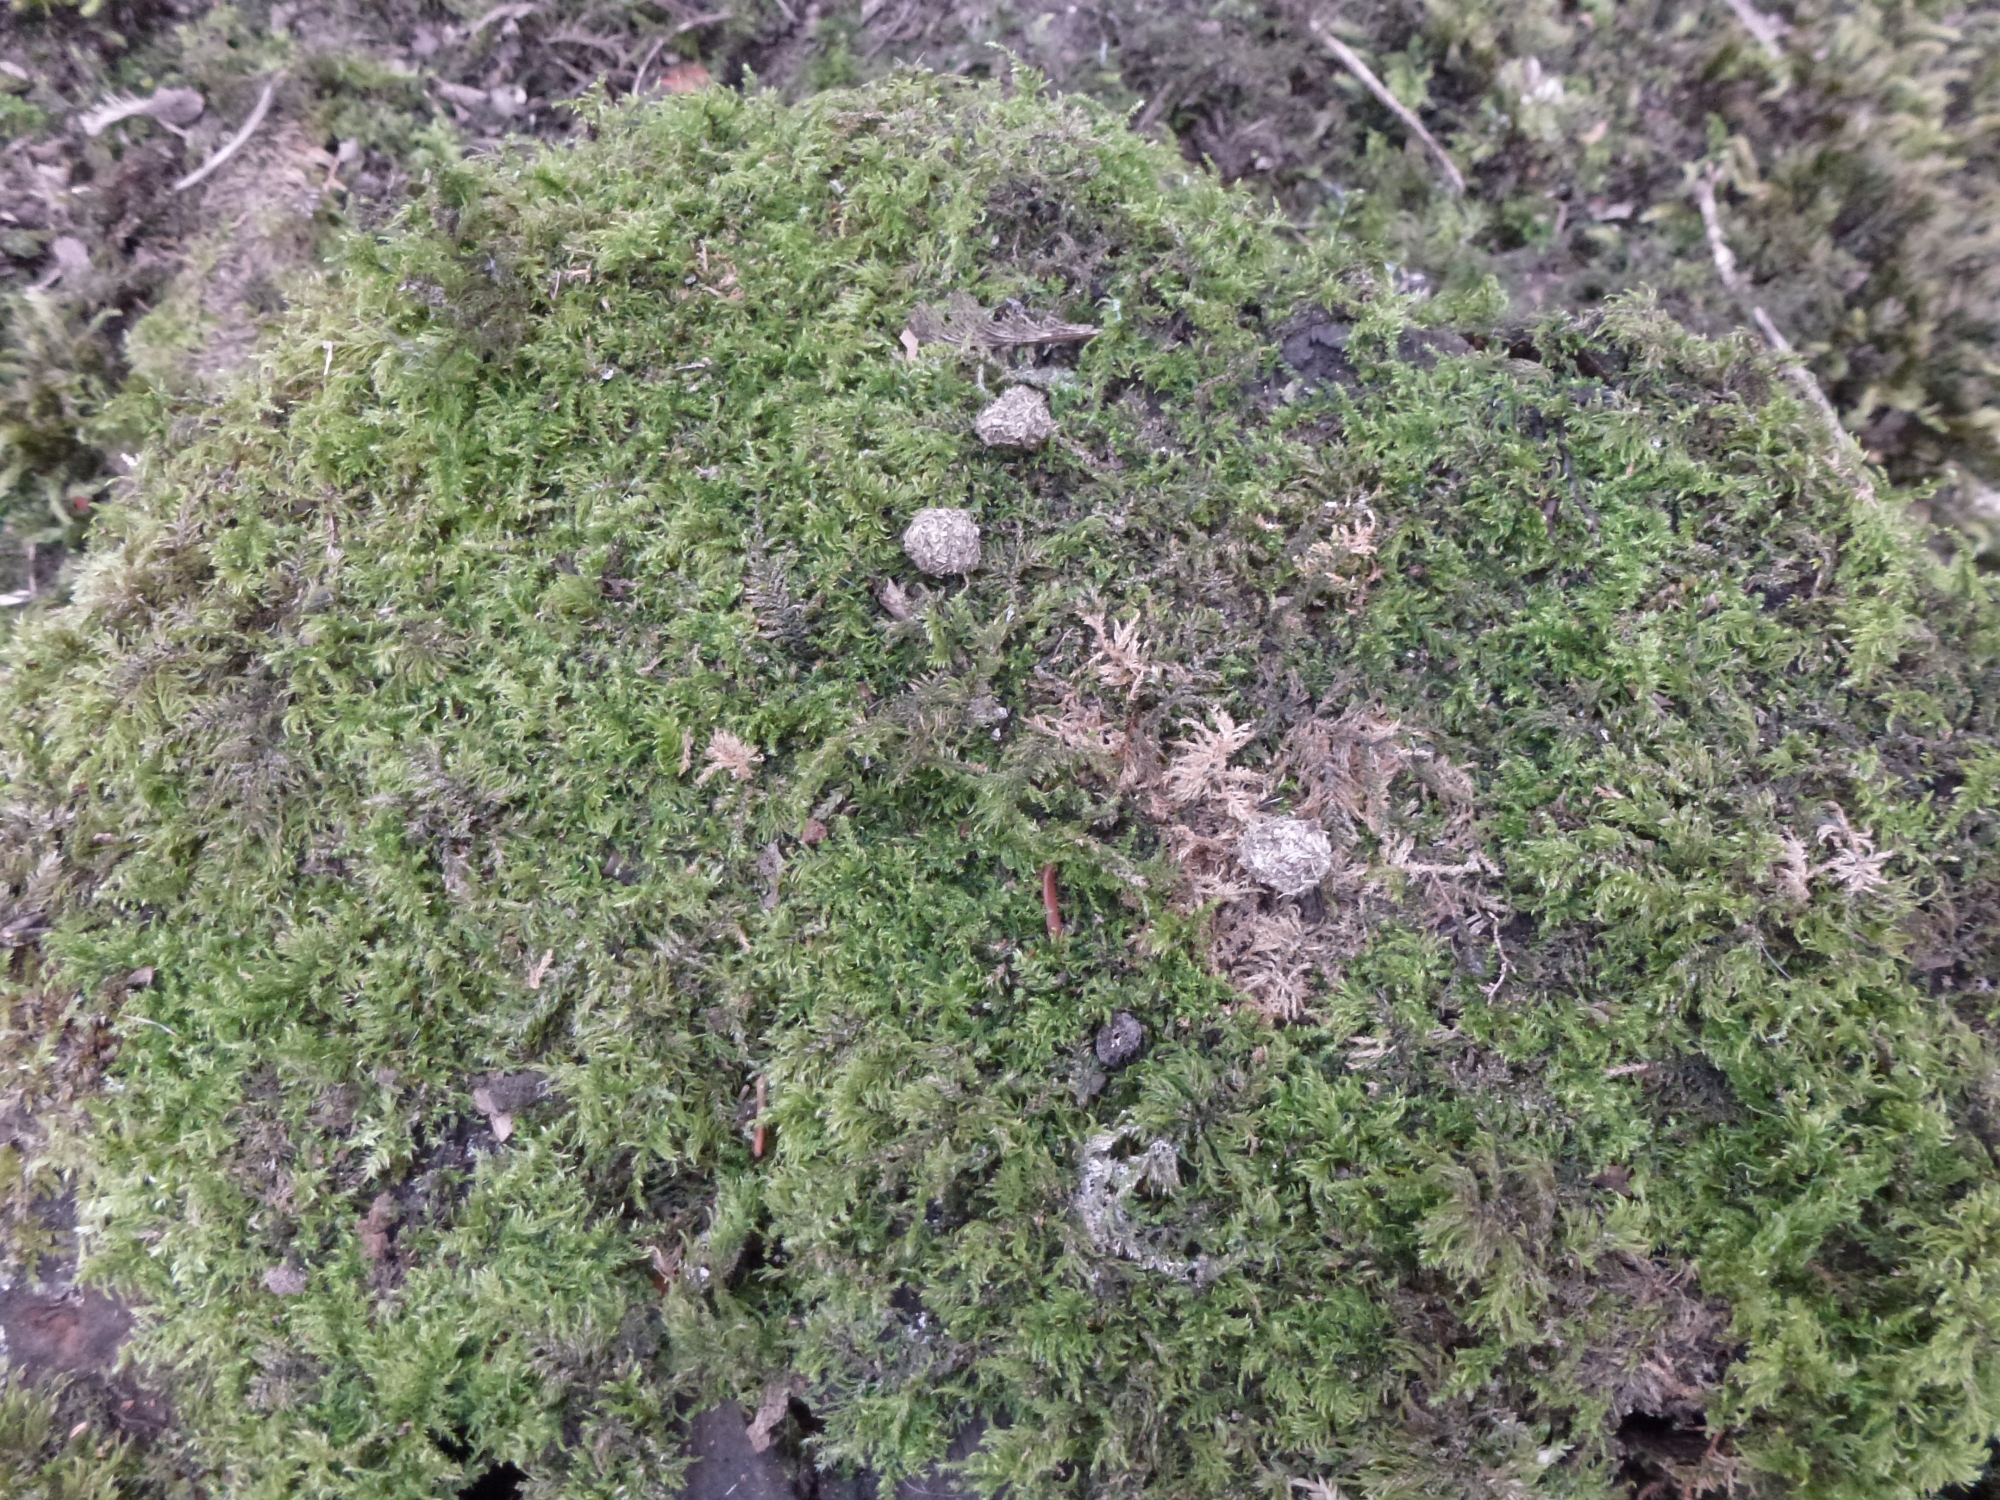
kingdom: Animalia
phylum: Chordata
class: Mammalia
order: Lagomorpha
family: Leporidae
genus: Oryctolagus
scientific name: Oryctolagus cuniculus
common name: European rabbit
